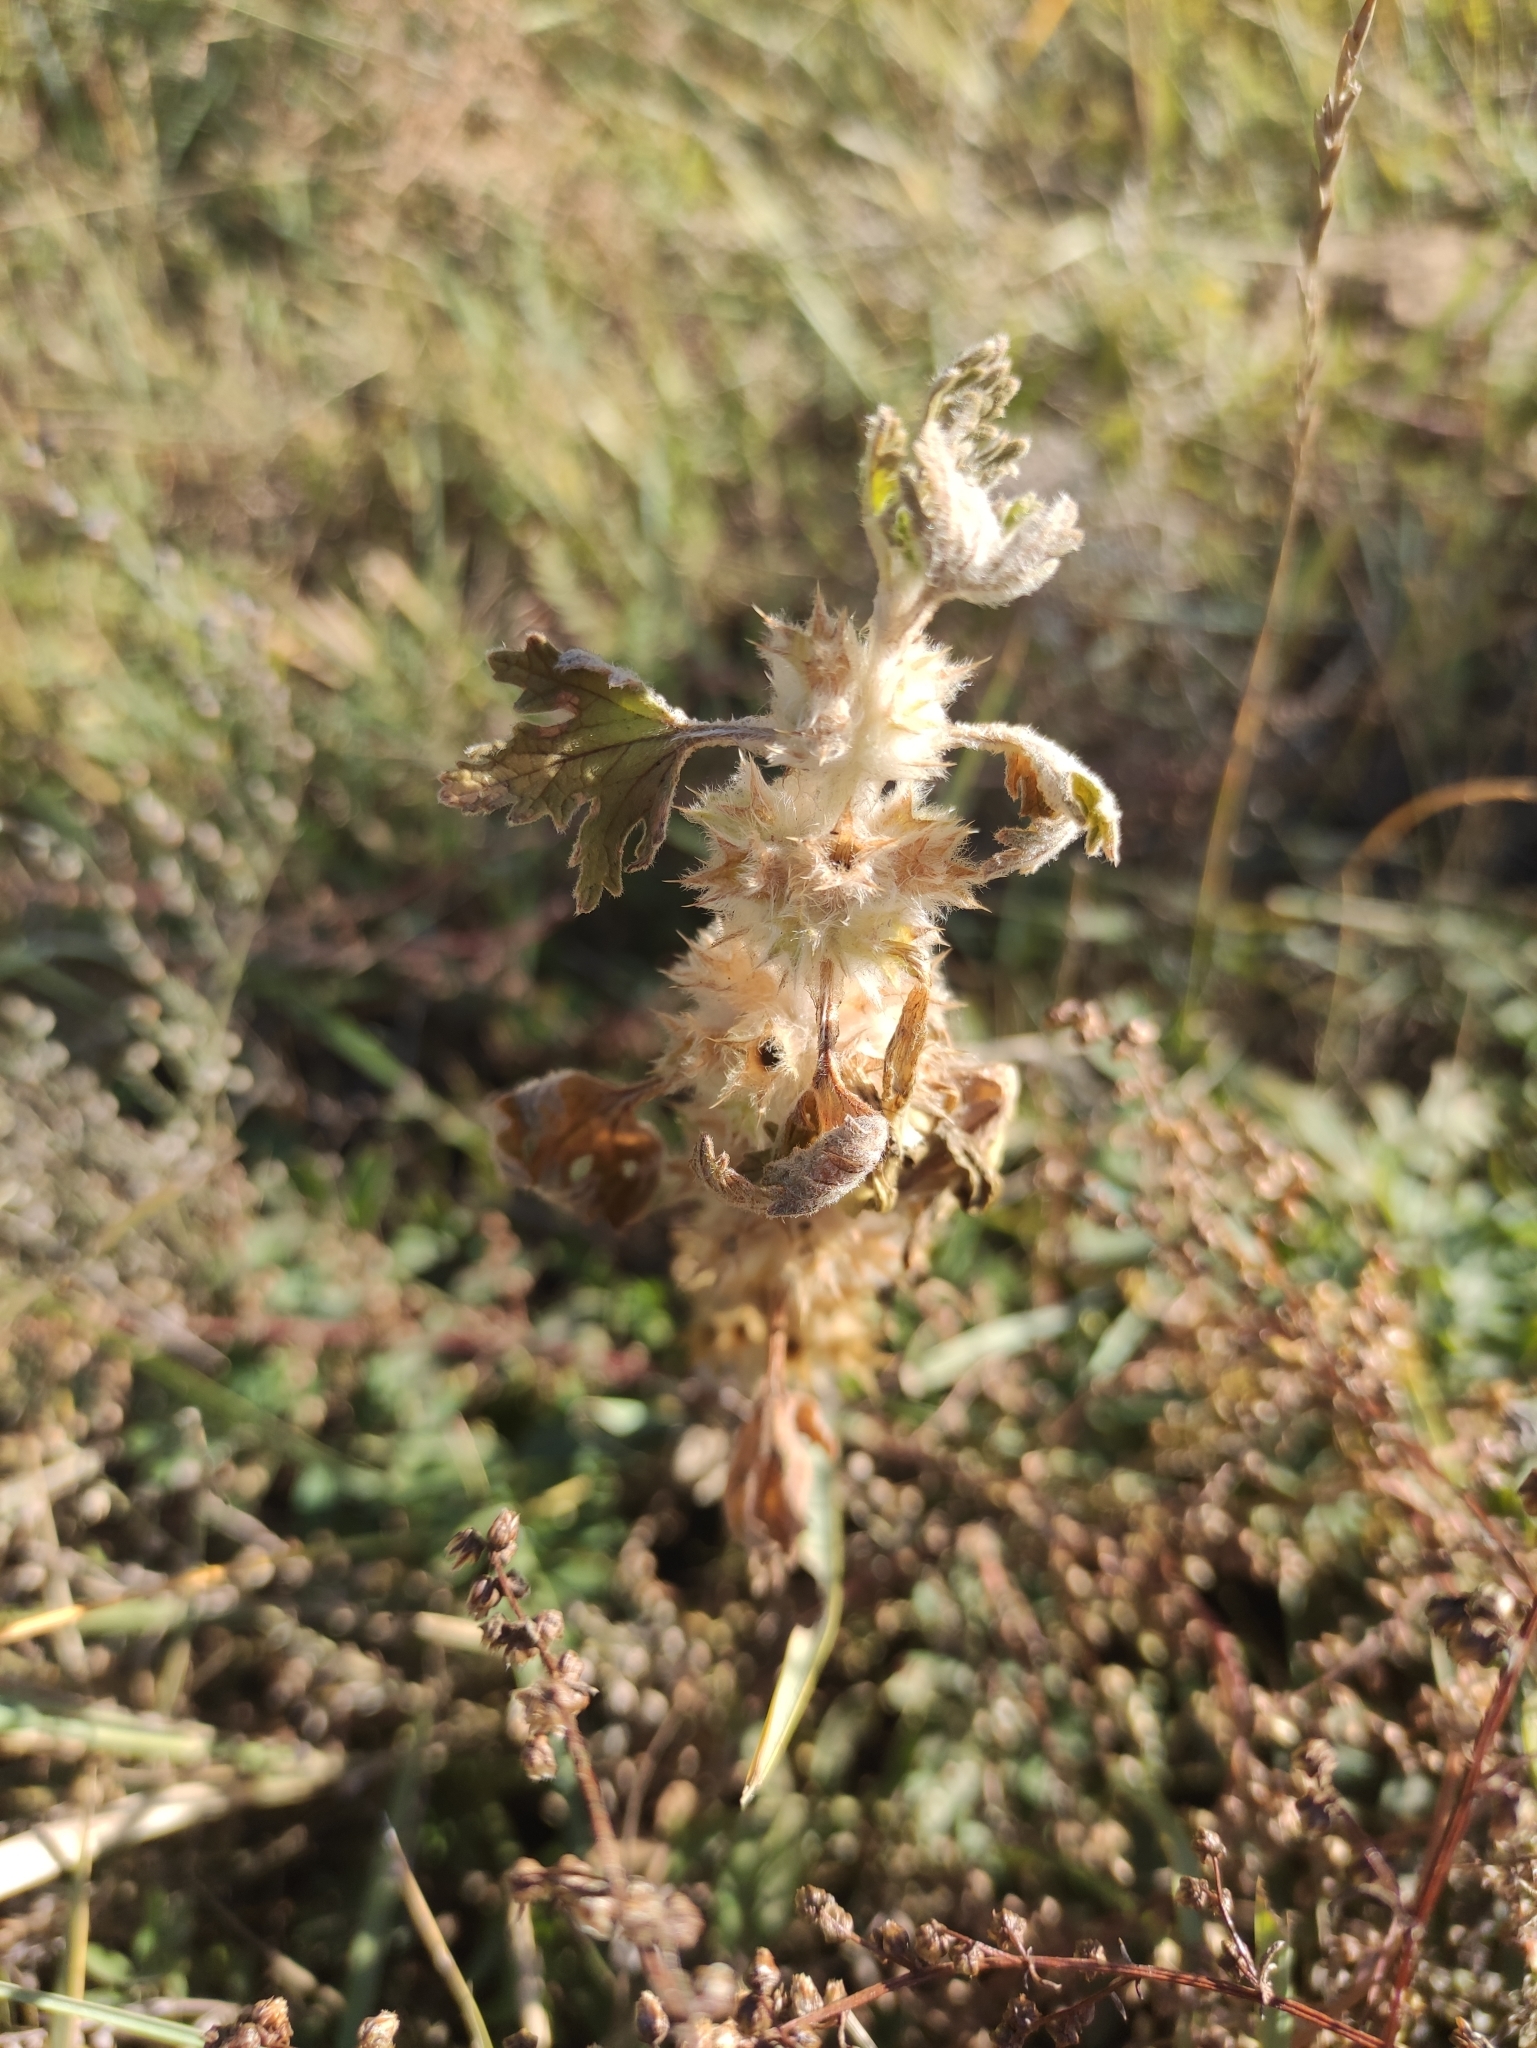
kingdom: Plantae
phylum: Tracheophyta
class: Magnoliopsida
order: Lamiales
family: Lamiaceae
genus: Panzerina
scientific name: Panzerina lanata
